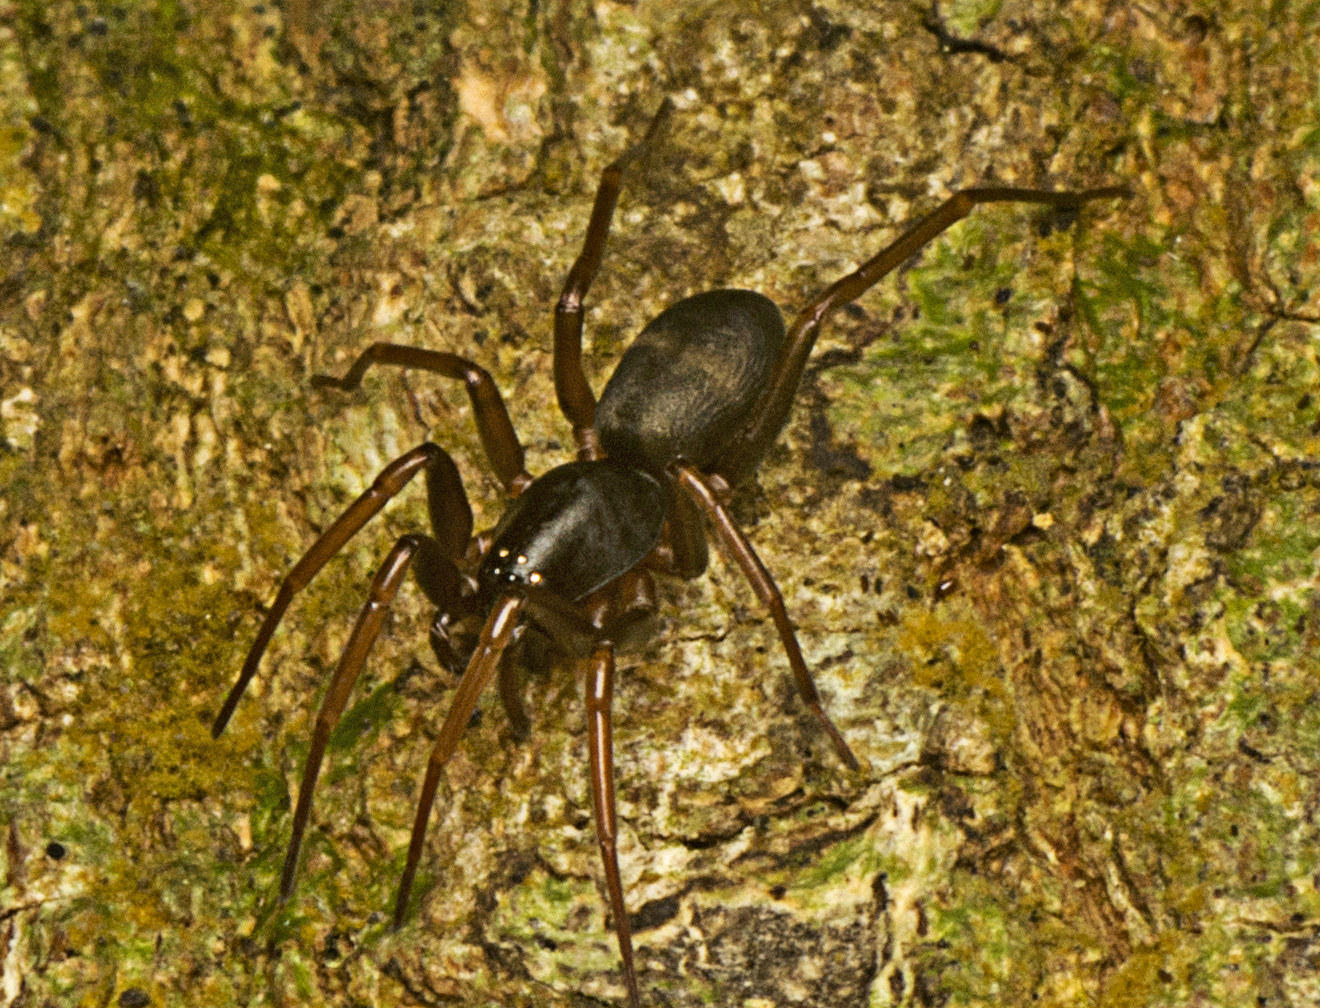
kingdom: Animalia
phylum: Arthropoda
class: Arachnida
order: Araneae
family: Lamponidae
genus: Centrothele
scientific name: Centrothele mutica
